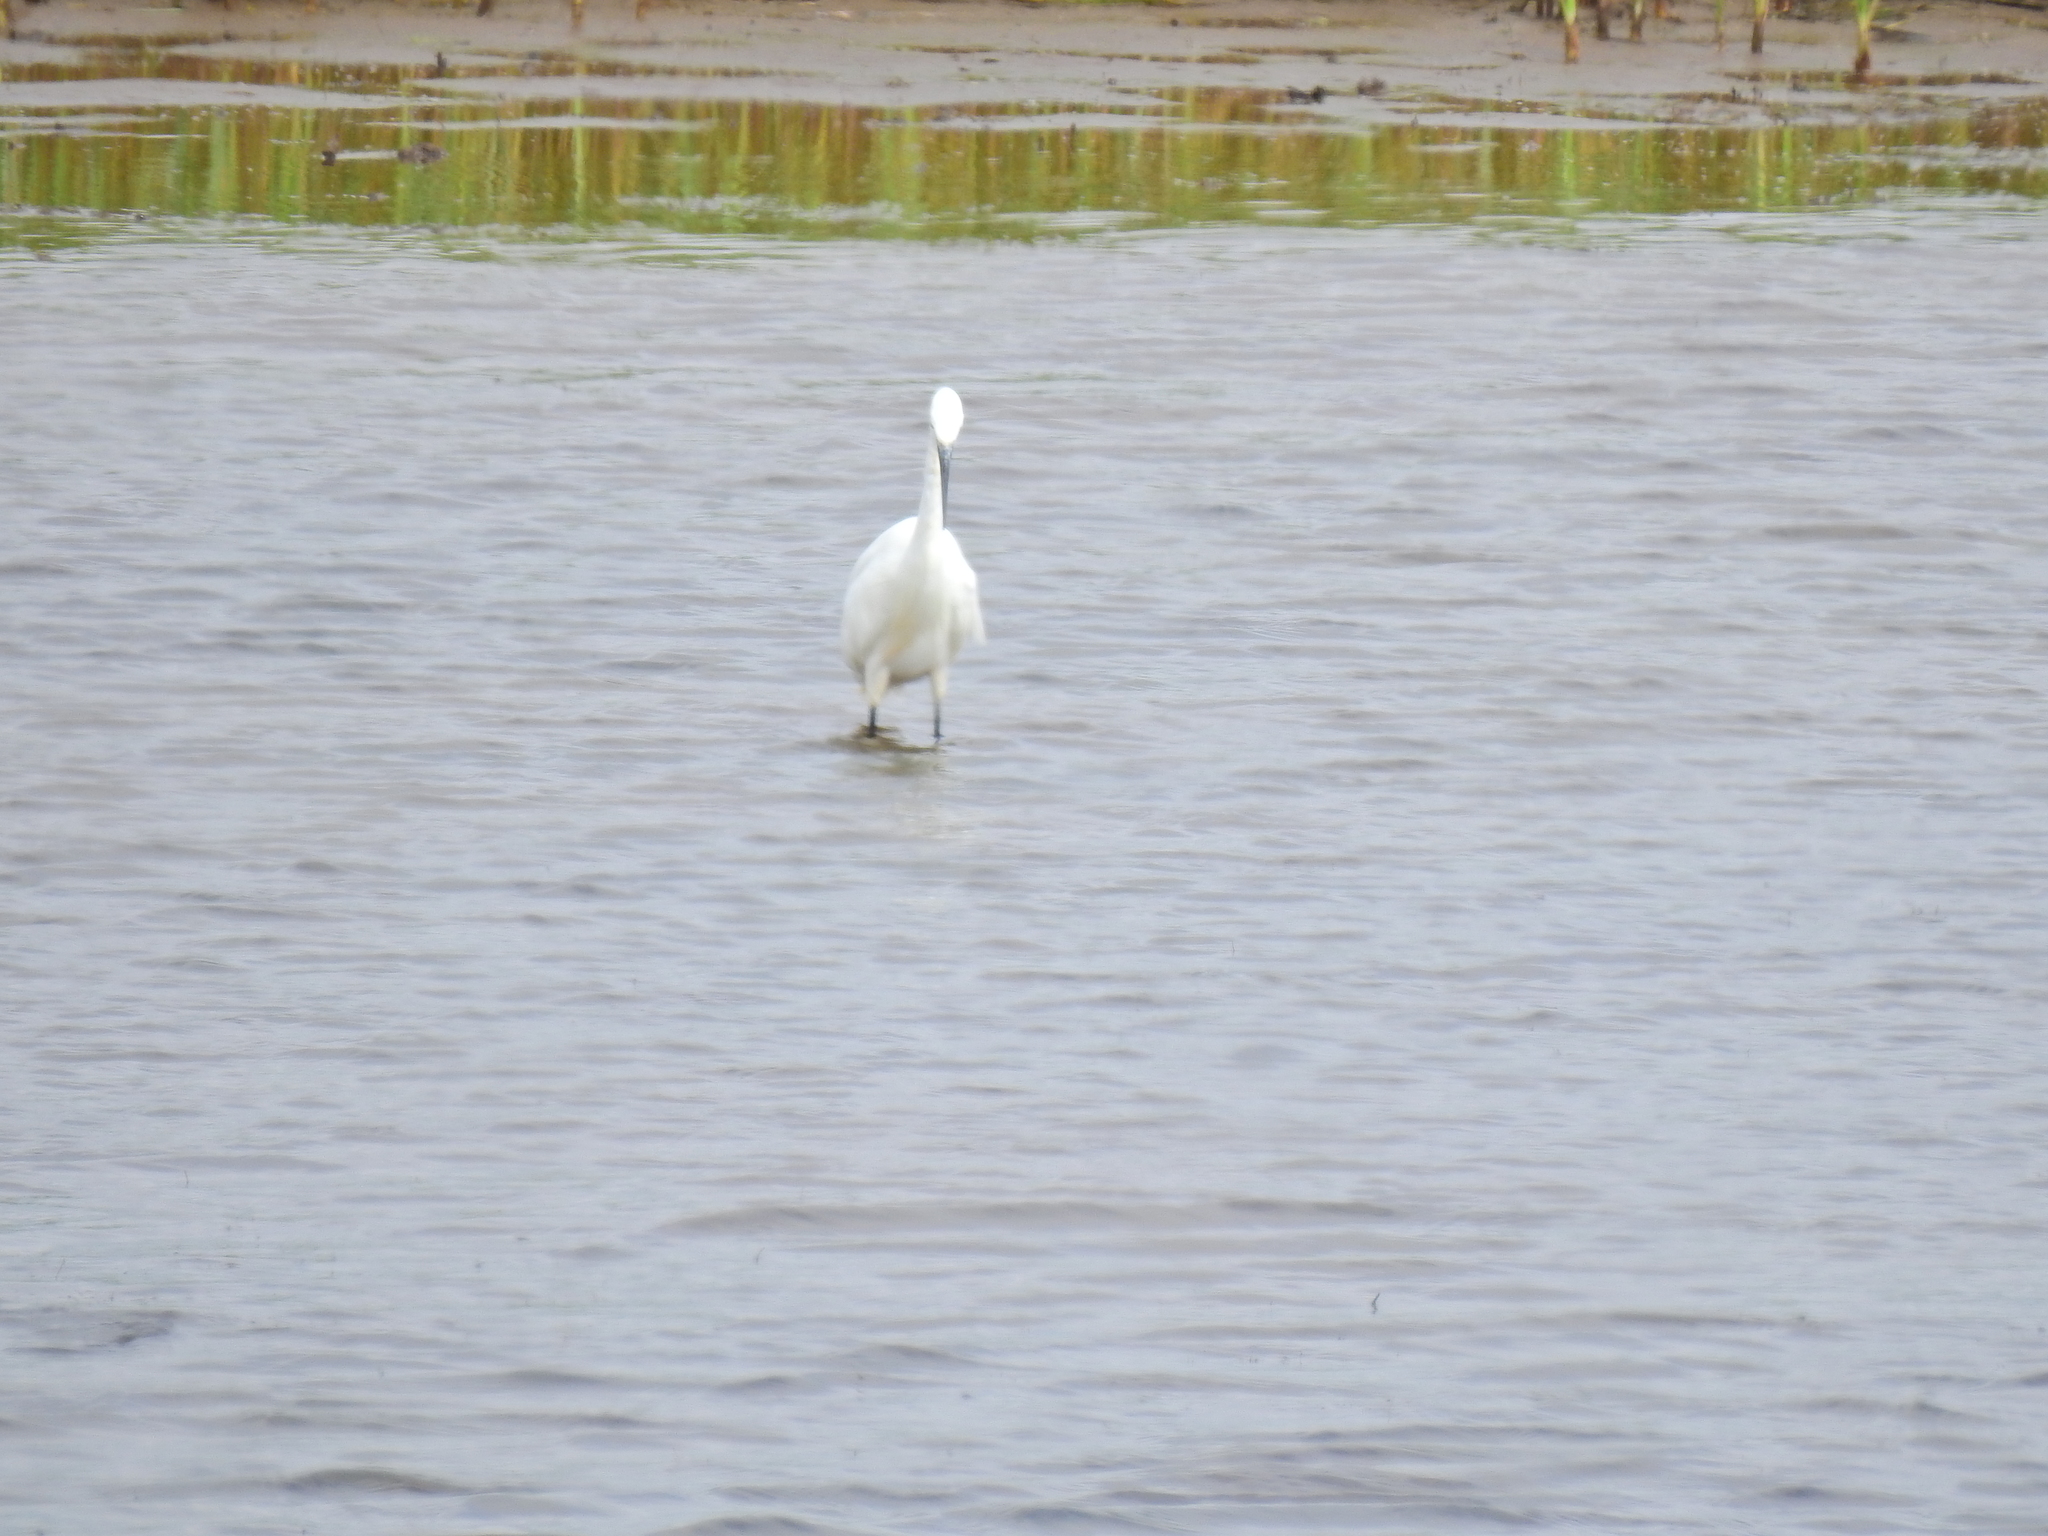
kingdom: Animalia
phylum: Chordata
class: Aves
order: Pelecaniformes
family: Ardeidae
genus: Egretta
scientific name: Egretta garzetta
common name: Little egret
